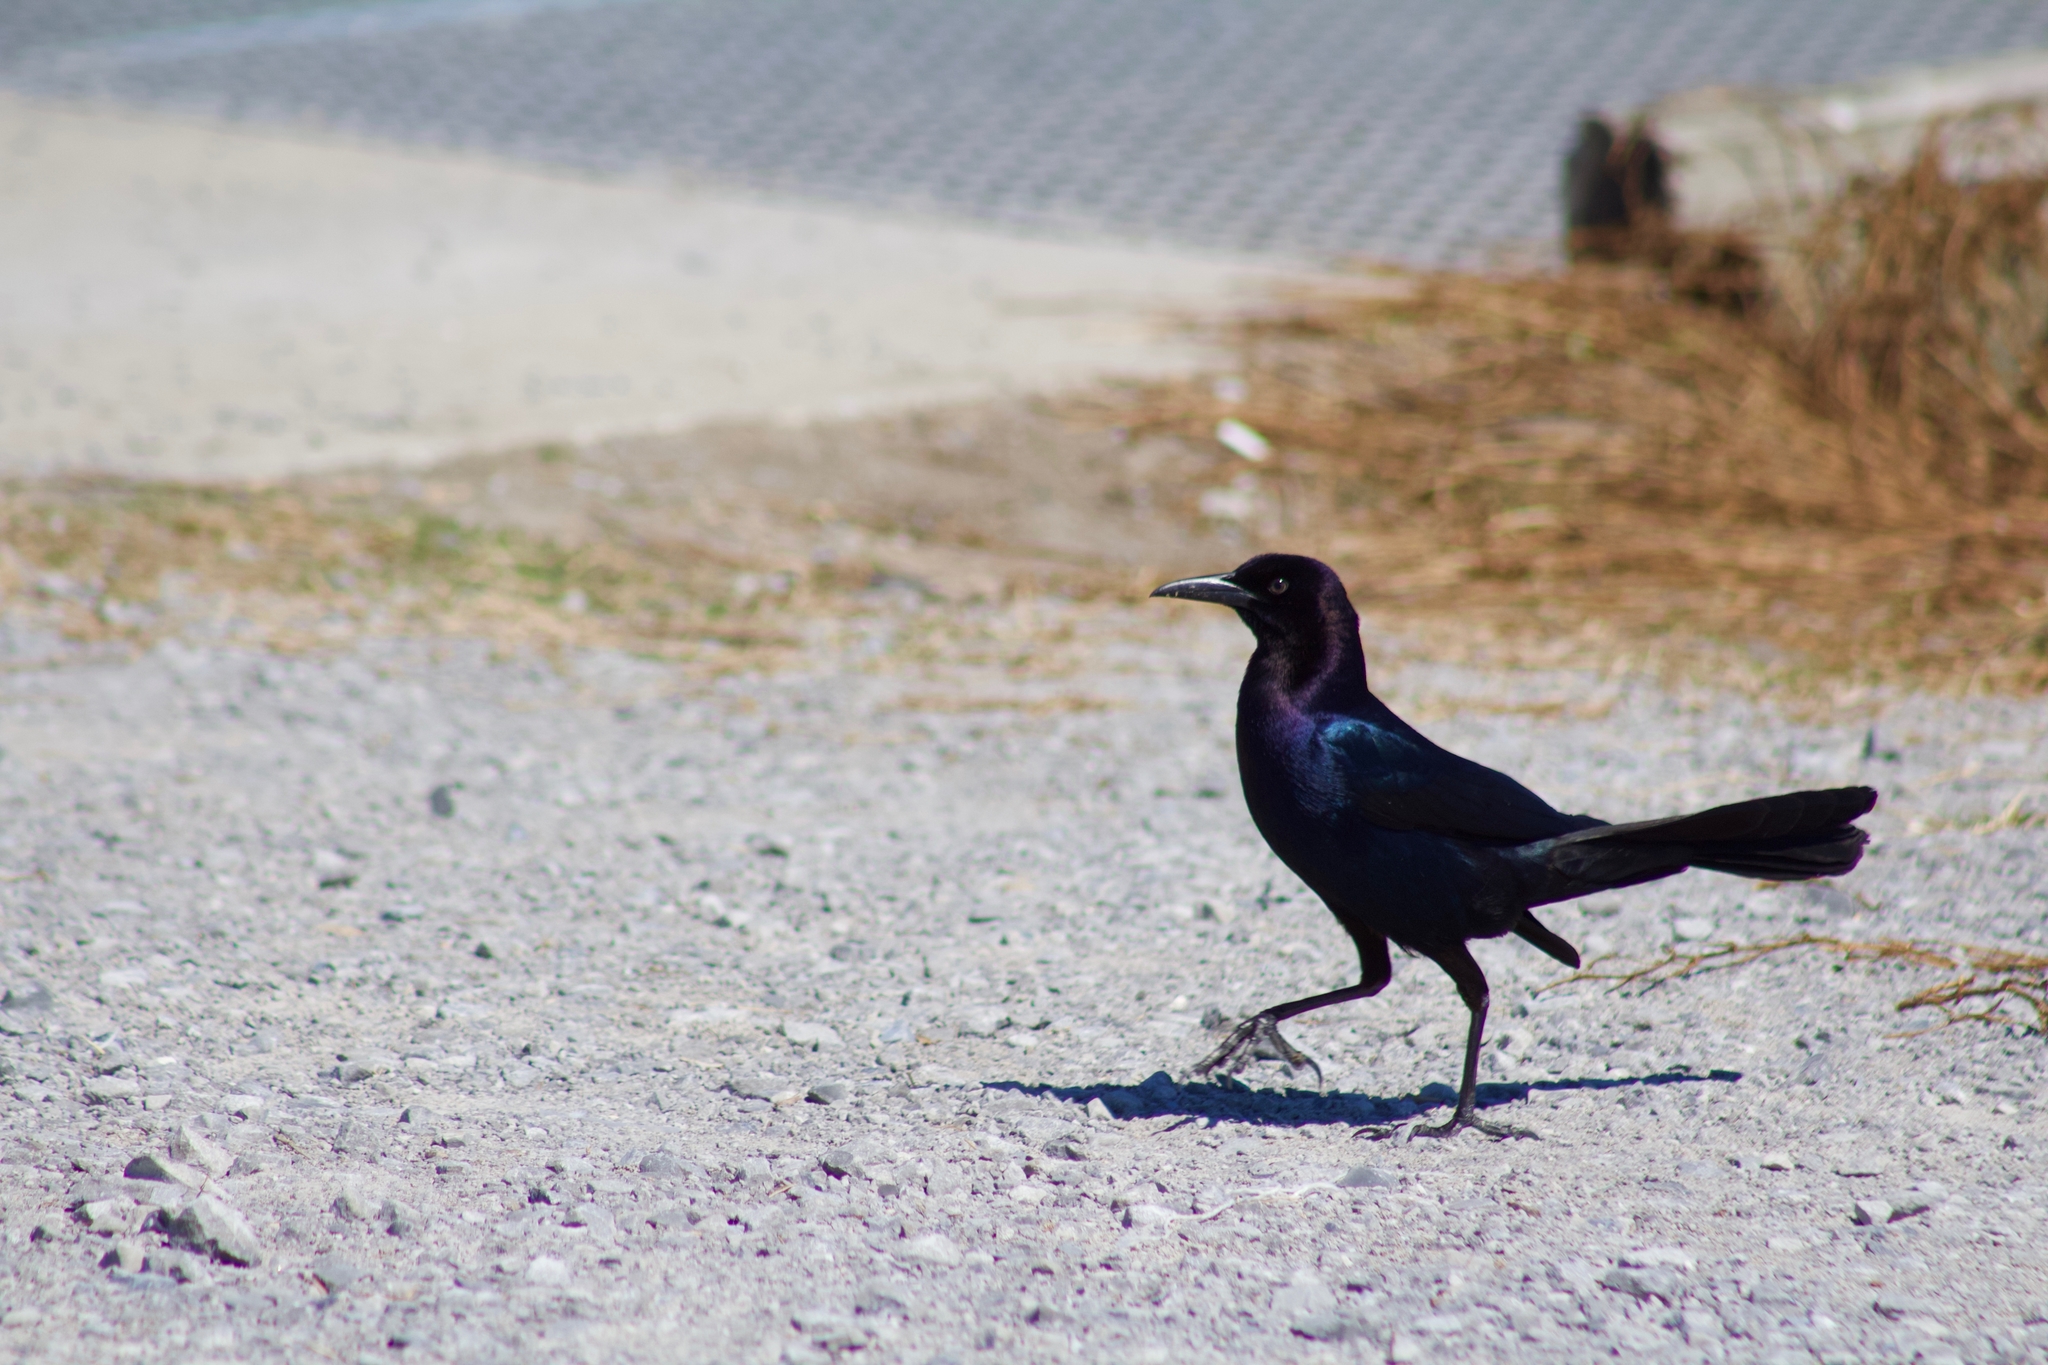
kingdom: Animalia
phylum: Chordata
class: Aves
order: Passeriformes
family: Icteridae
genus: Quiscalus
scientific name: Quiscalus major
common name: Boat-tailed grackle
